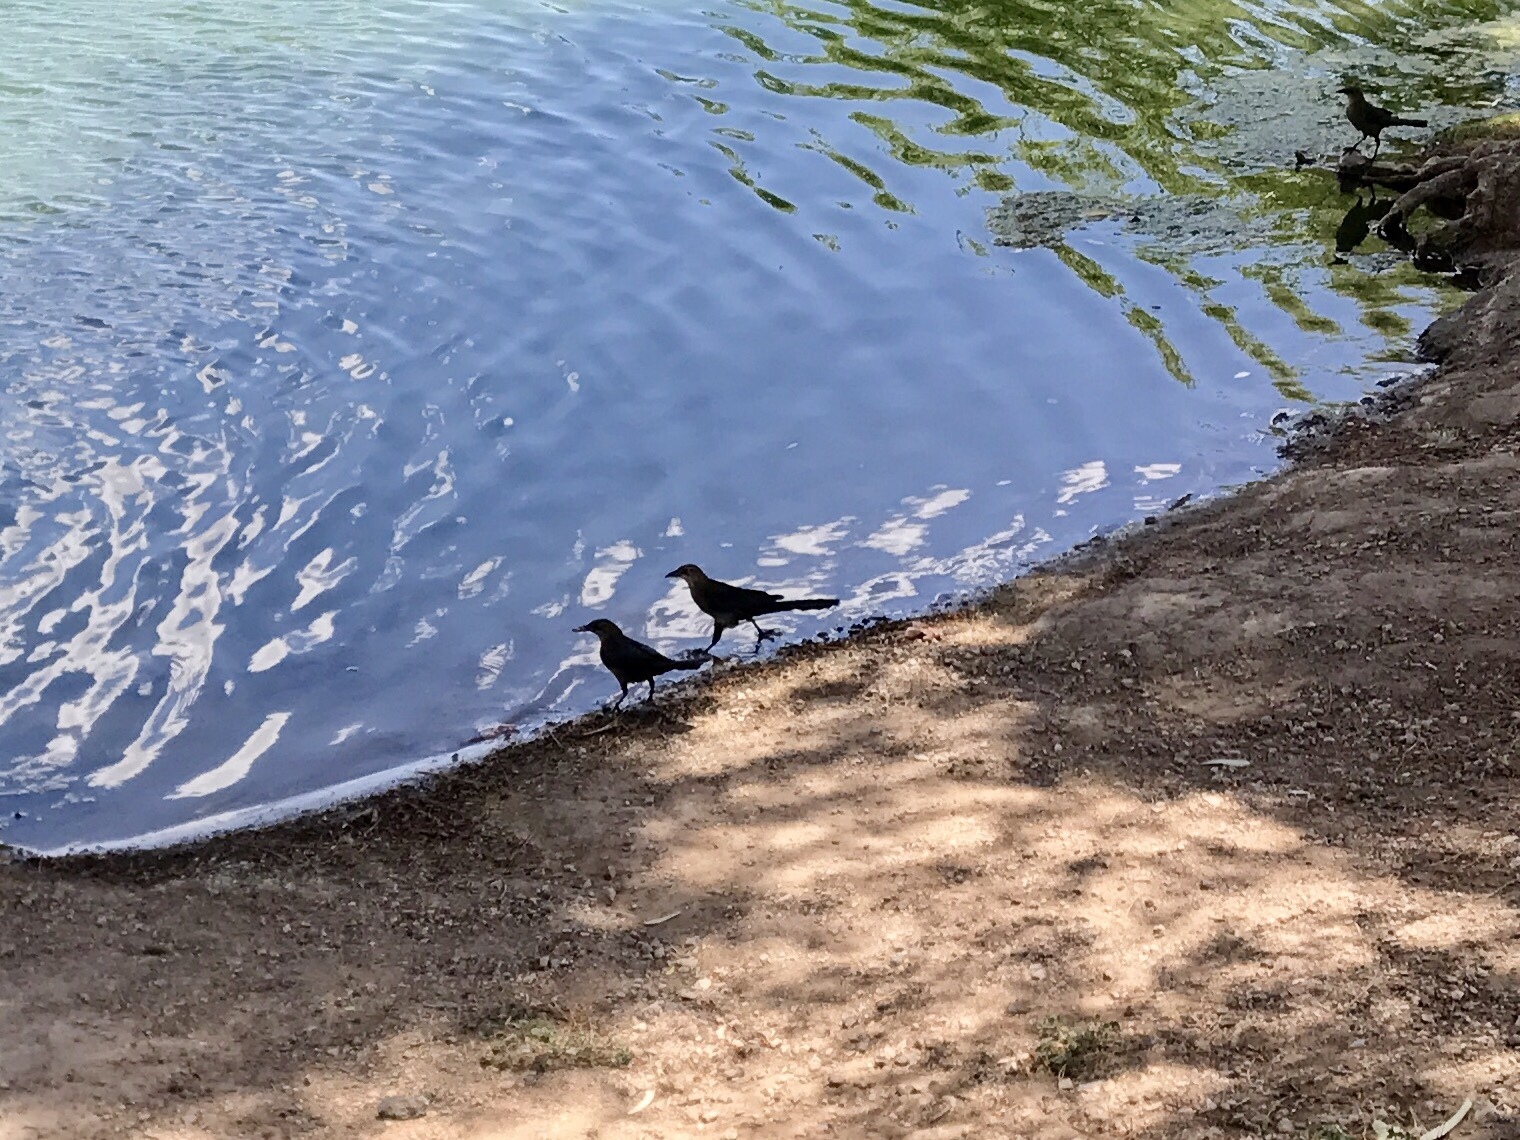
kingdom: Animalia
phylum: Chordata
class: Aves
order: Passeriformes
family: Icteridae
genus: Quiscalus
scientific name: Quiscalus mexicanus
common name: Great-tailed grackle
